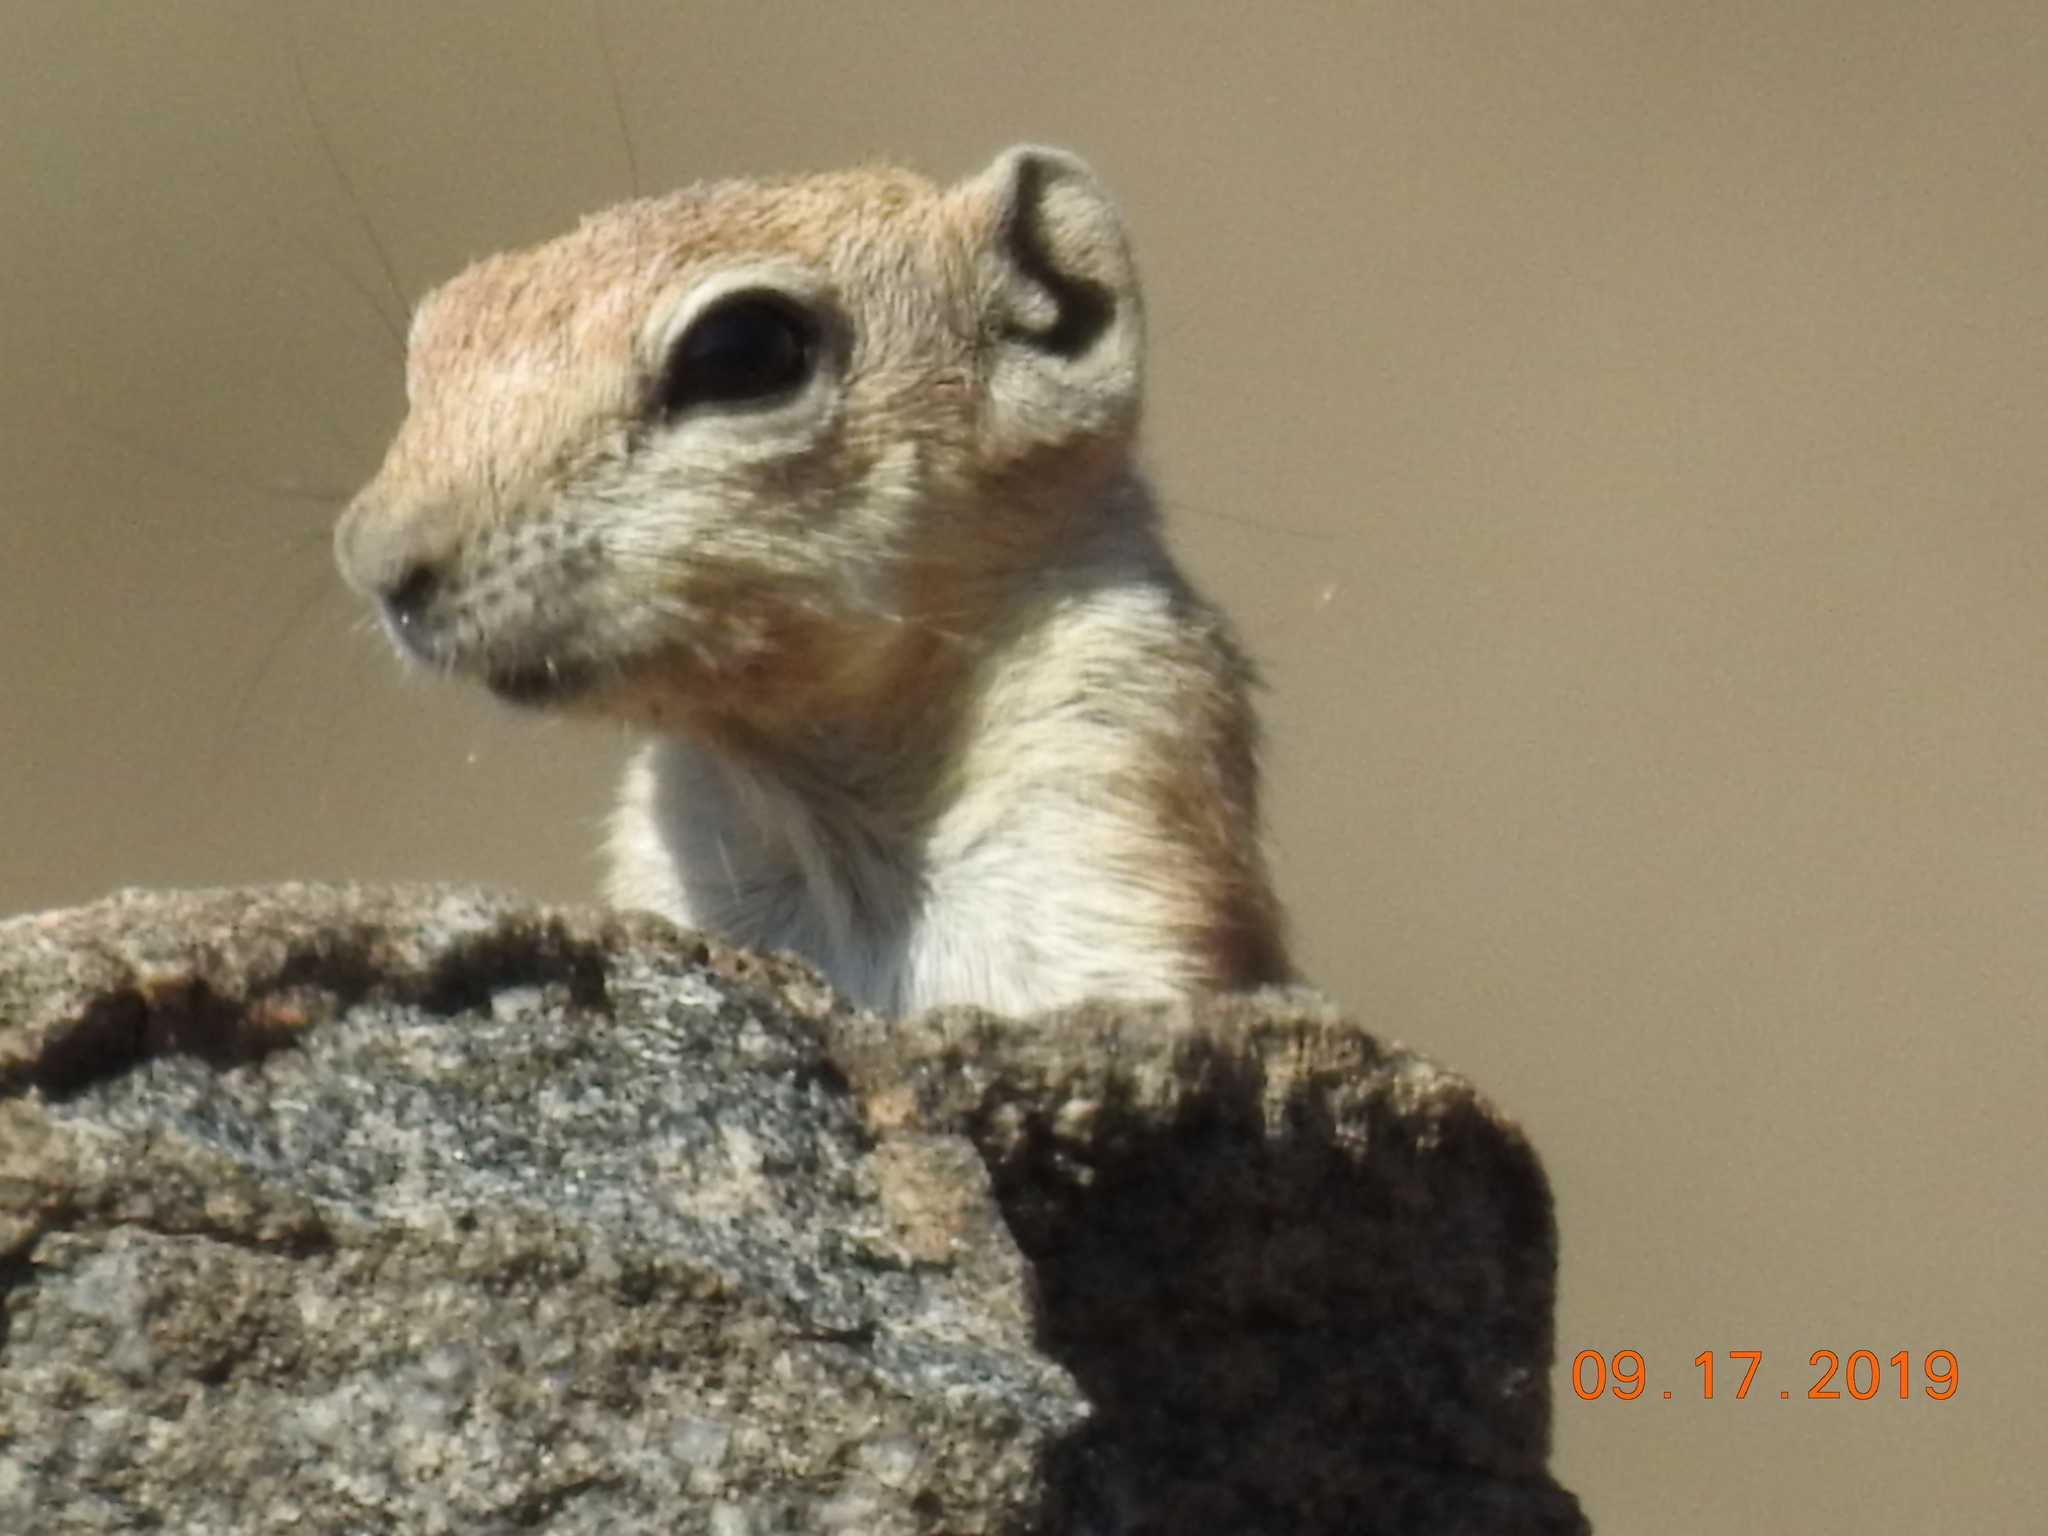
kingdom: Animalia
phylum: Chordata
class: Mammalia
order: Rodentia
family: Sciuridae
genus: Ammospermophilus
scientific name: Ammospermophilus leucurus
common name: White-tailed antelope squirrel
